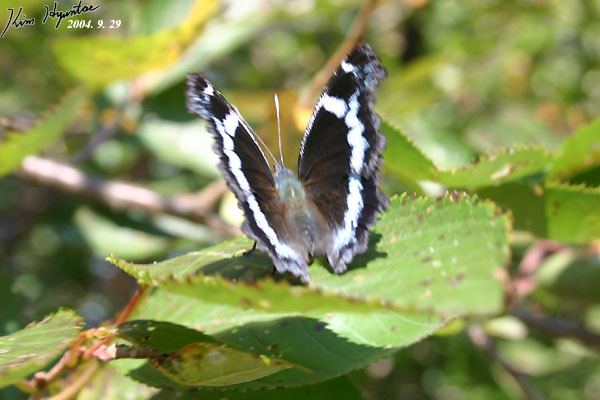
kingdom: Animalia
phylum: Arthropoda
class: Insecta
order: Lepidoptera
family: Nymphalidae
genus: Vanessa
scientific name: Vanessa Kaniska canace
